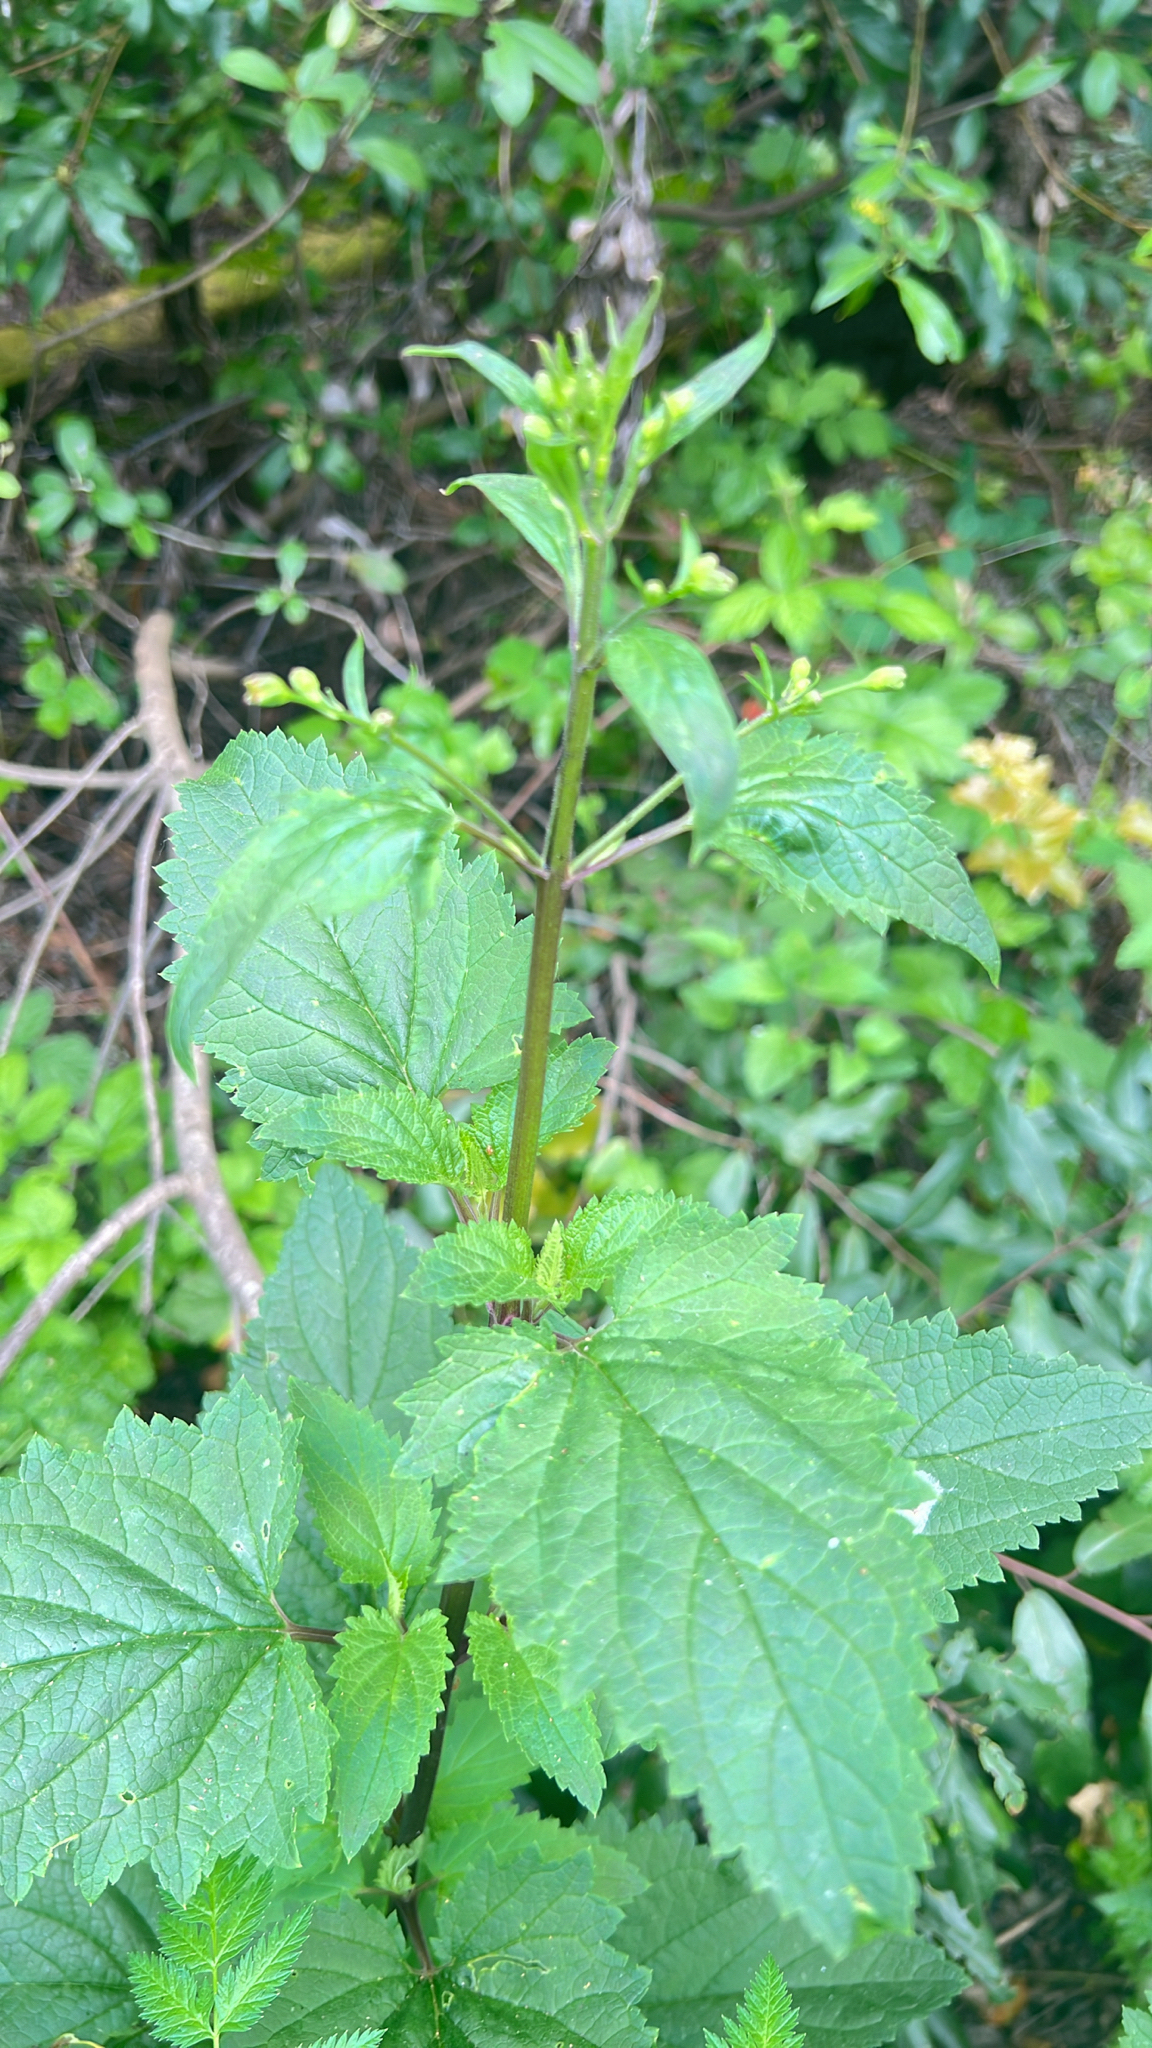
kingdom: Plantae
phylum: Tracheophyta
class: Magnoliopsida
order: Lamiales
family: Scrophulariaceae
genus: Scrophularia
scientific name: Scrophularia californica
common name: California figwort
